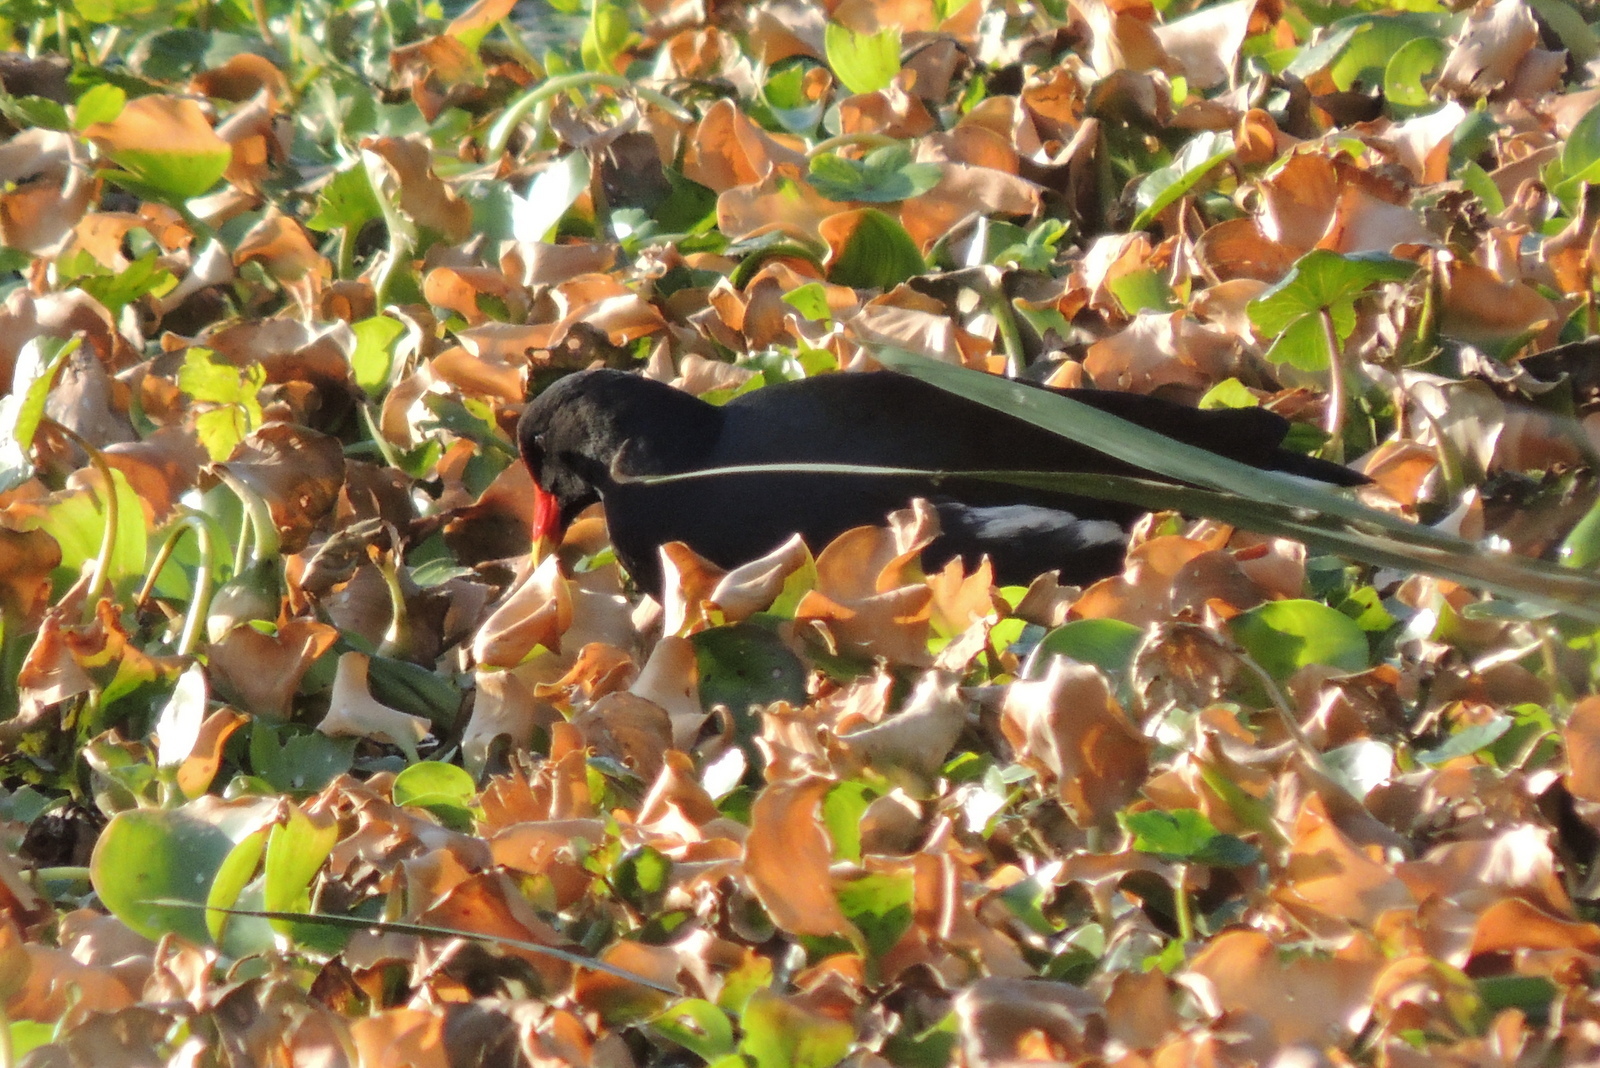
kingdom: Animalia
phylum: Chordata
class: Aves
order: Gruiformes
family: Rallidae
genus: Gallinula
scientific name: Gallinula chloropus
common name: Common moorhen
